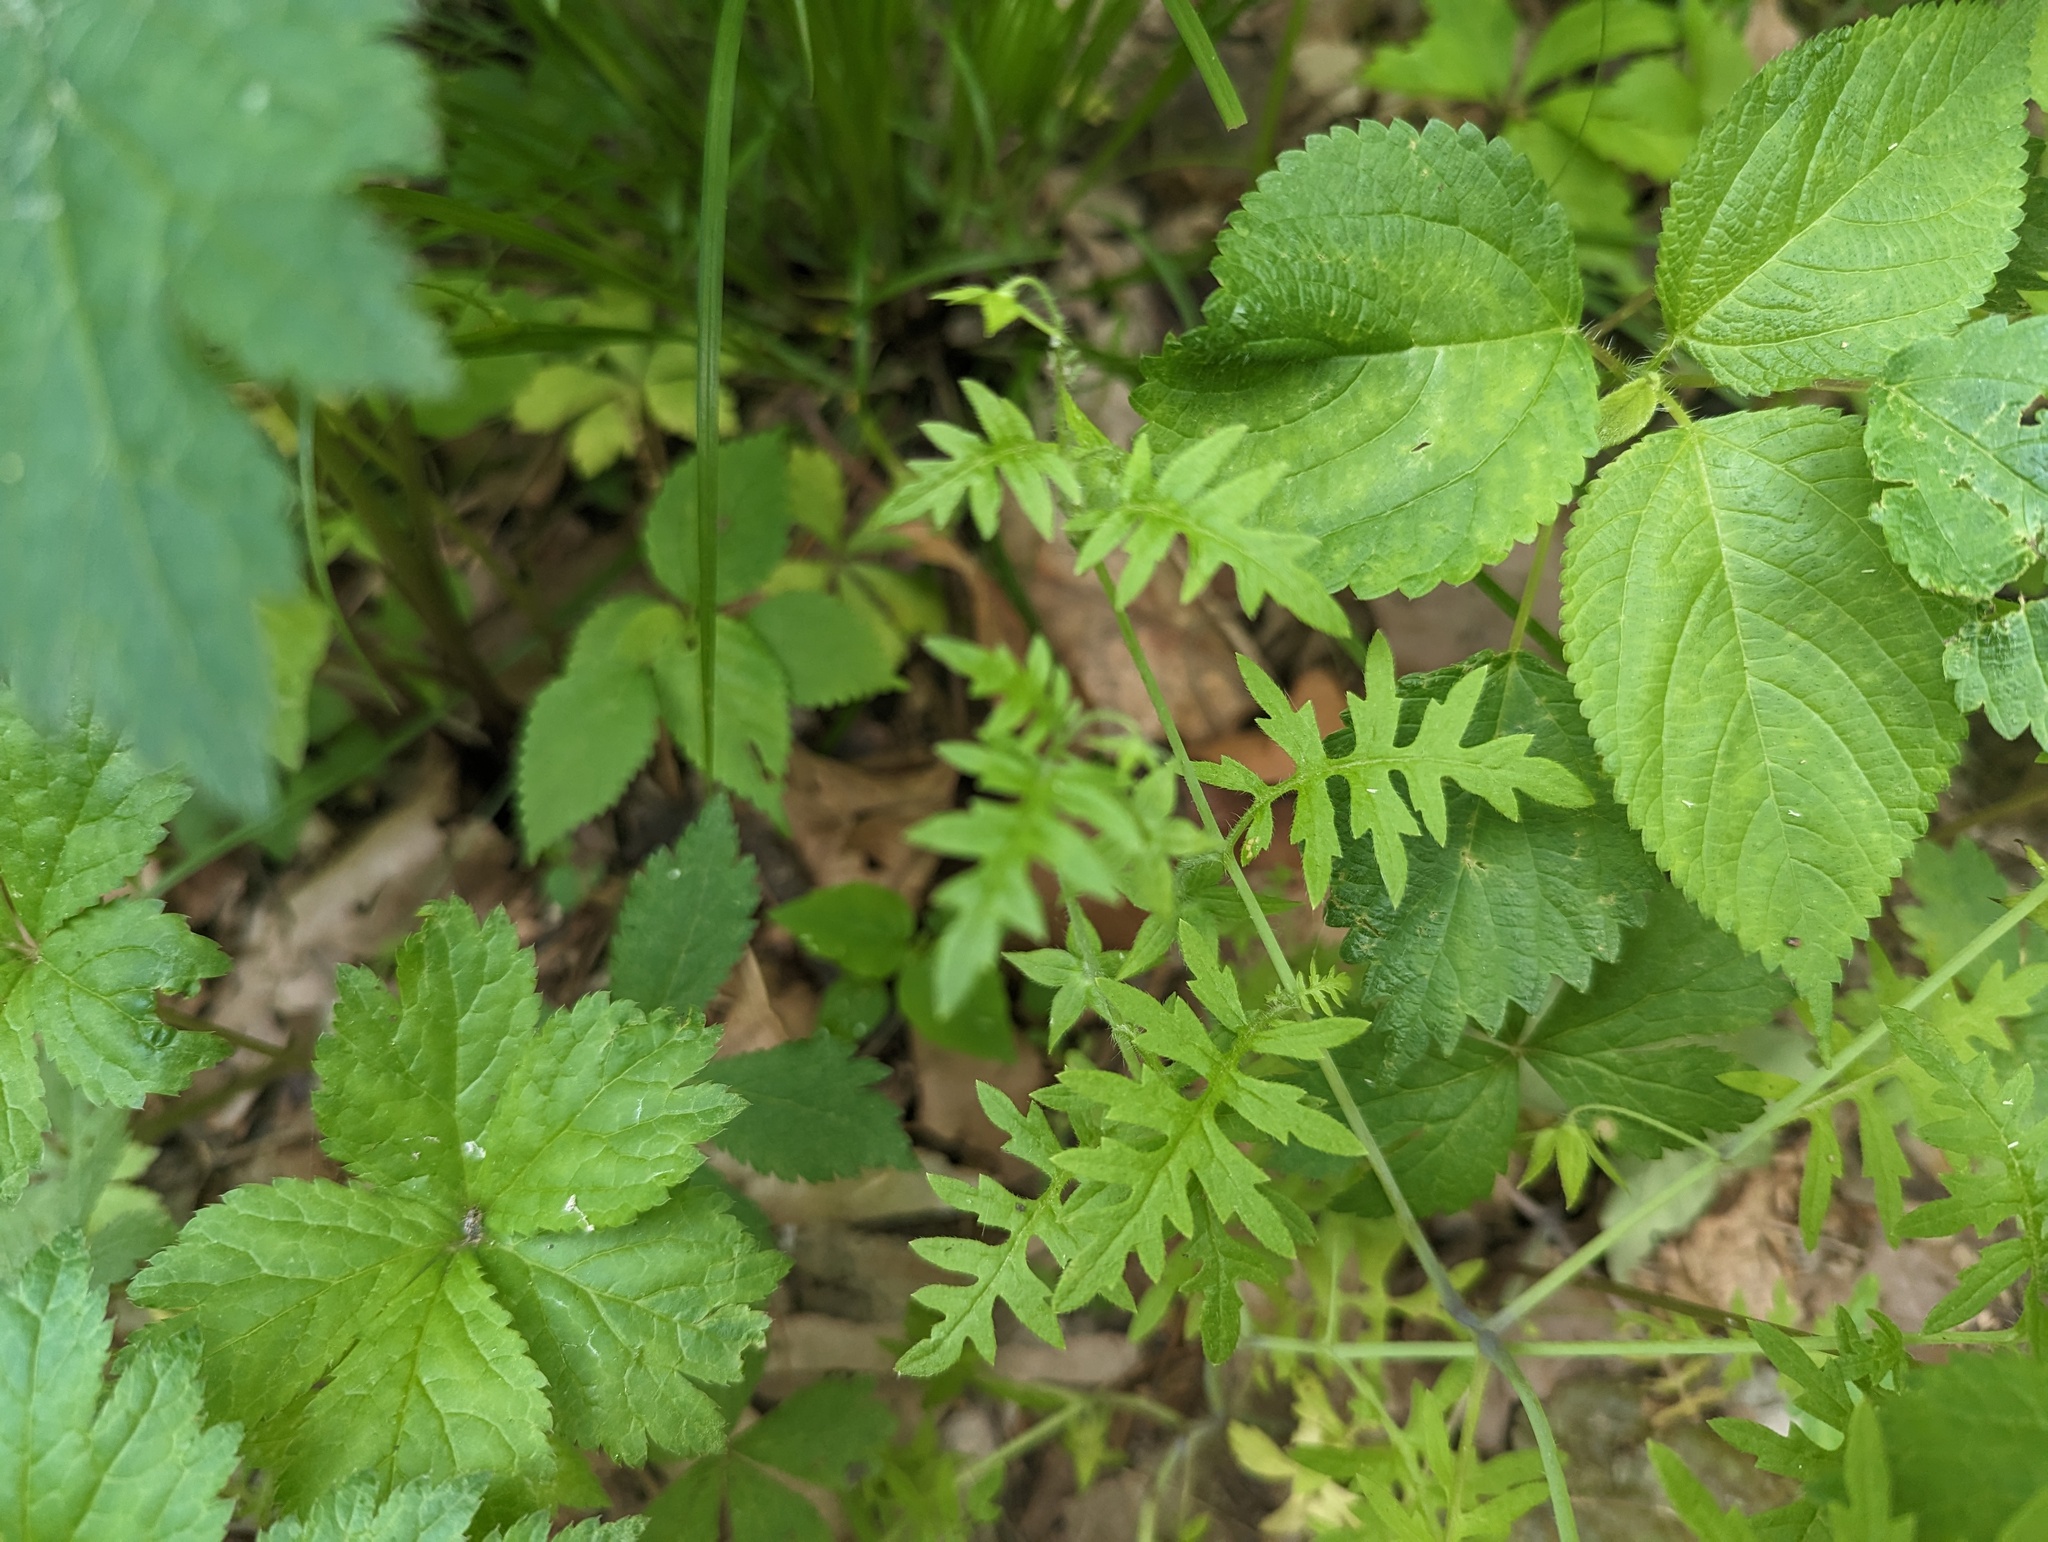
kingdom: Plantae
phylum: Tracheophyta
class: Magnoliopsida
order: Boraginales
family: Hydrophyllaceae
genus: Ellisia
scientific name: Ellisia nyctelea
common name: Aunt lucy
